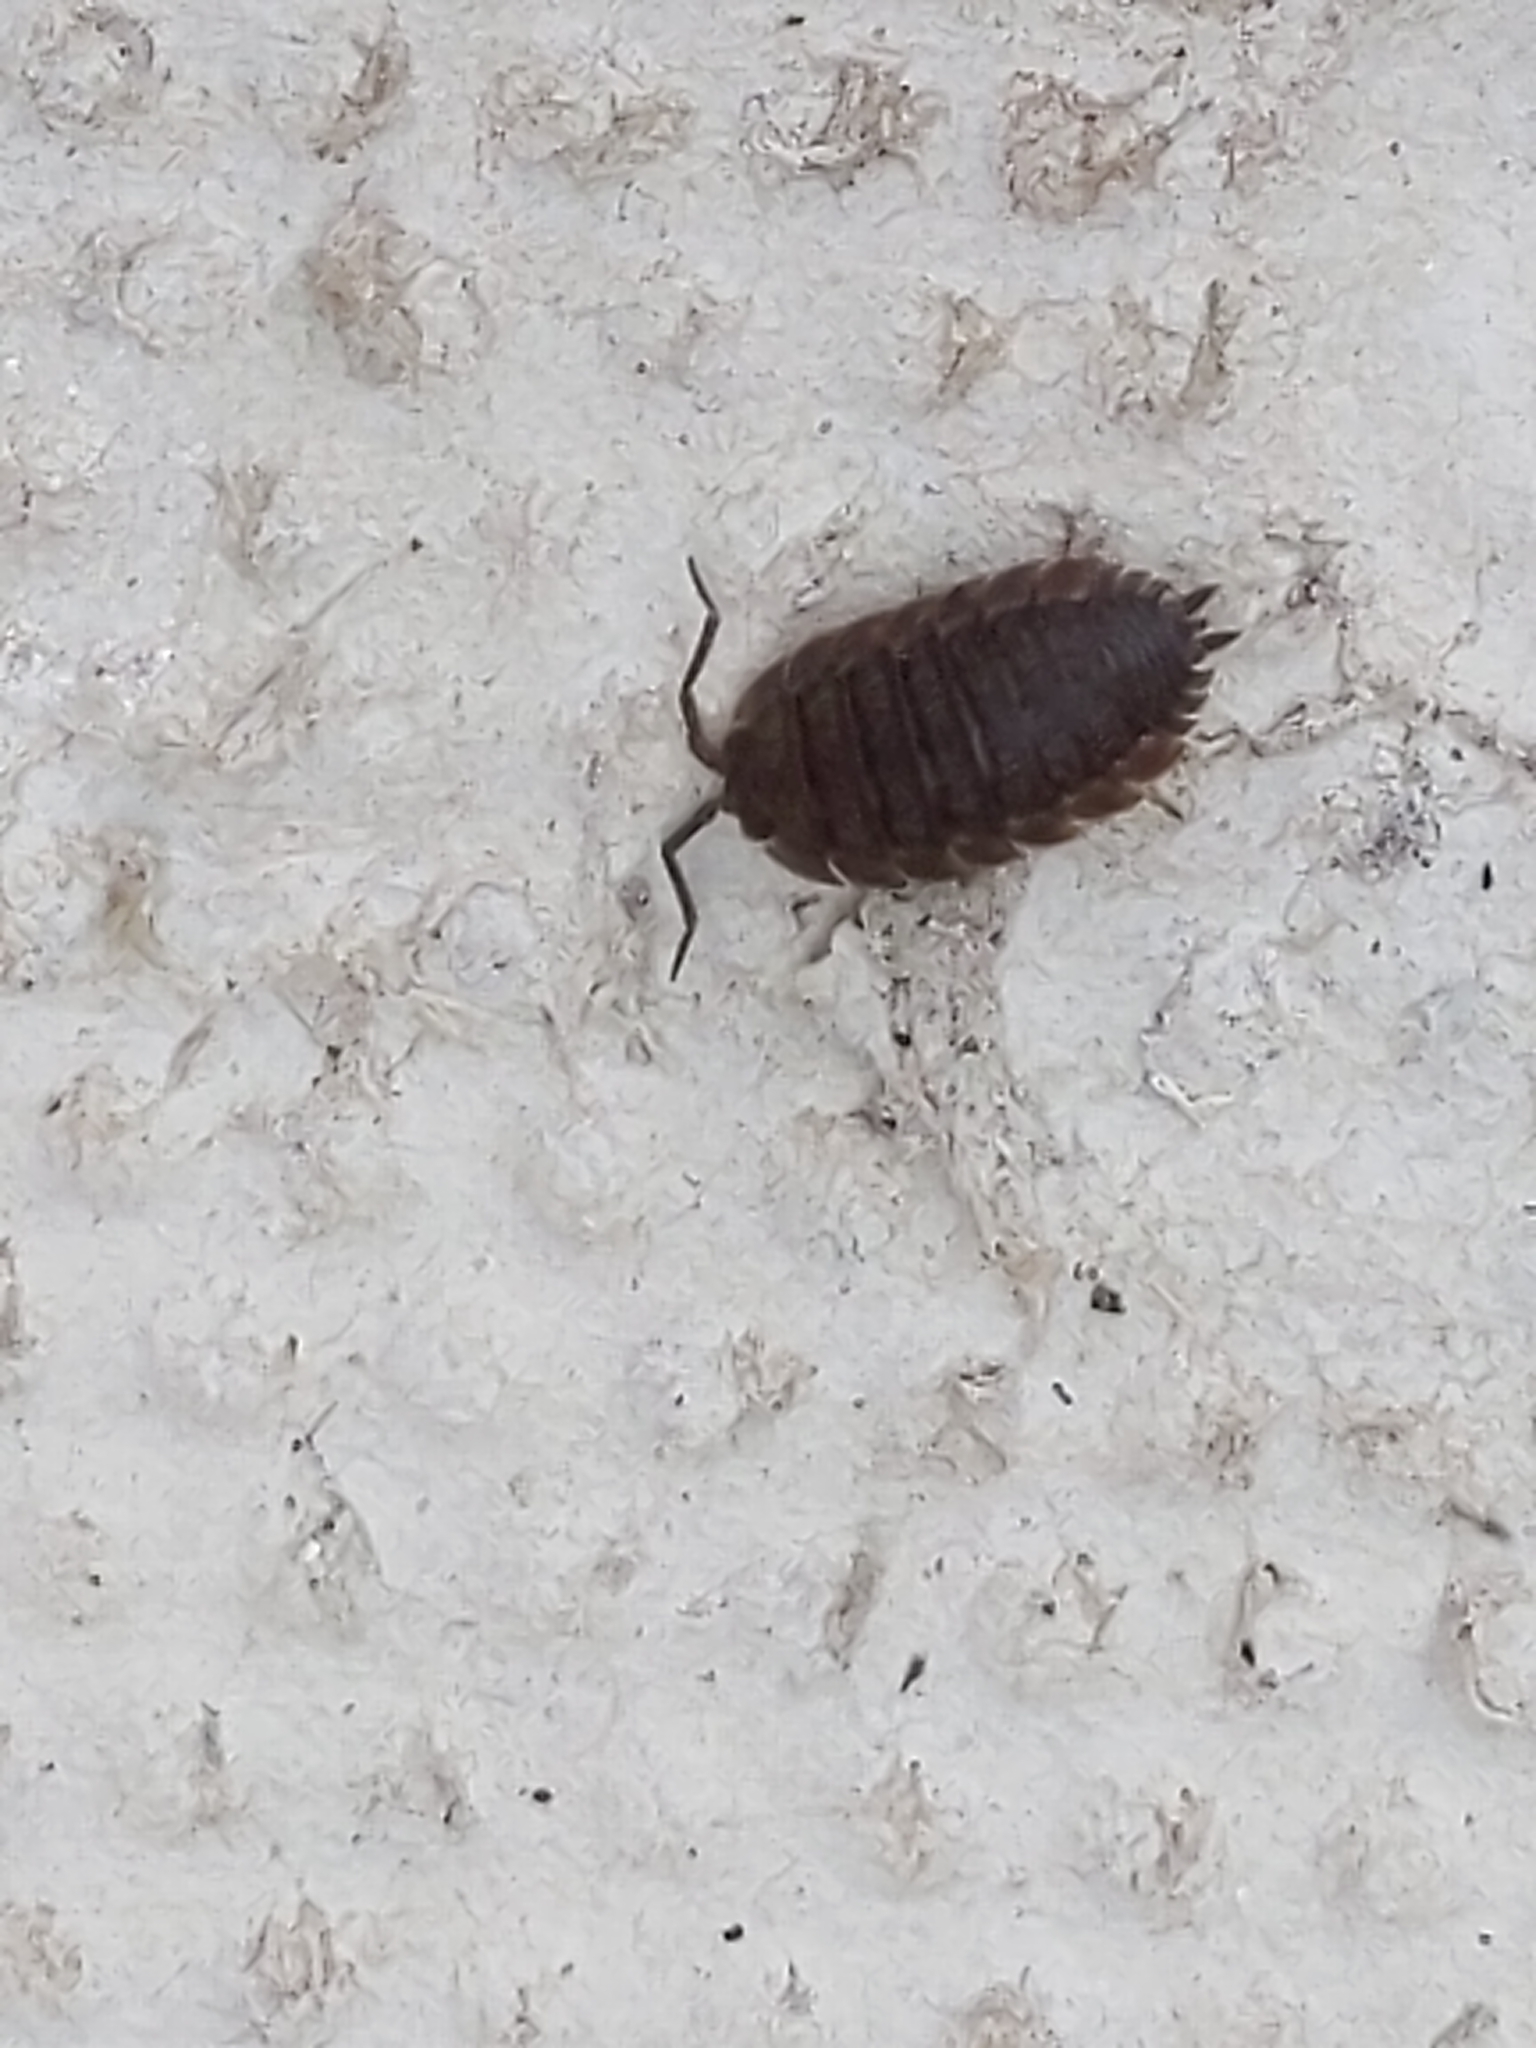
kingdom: Animalia
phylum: Arthropoda
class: Malacostraca
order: Isopoda
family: Porcellionidae
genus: Porcellio
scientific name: Porcellio scaber
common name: Common rough woodlouse
